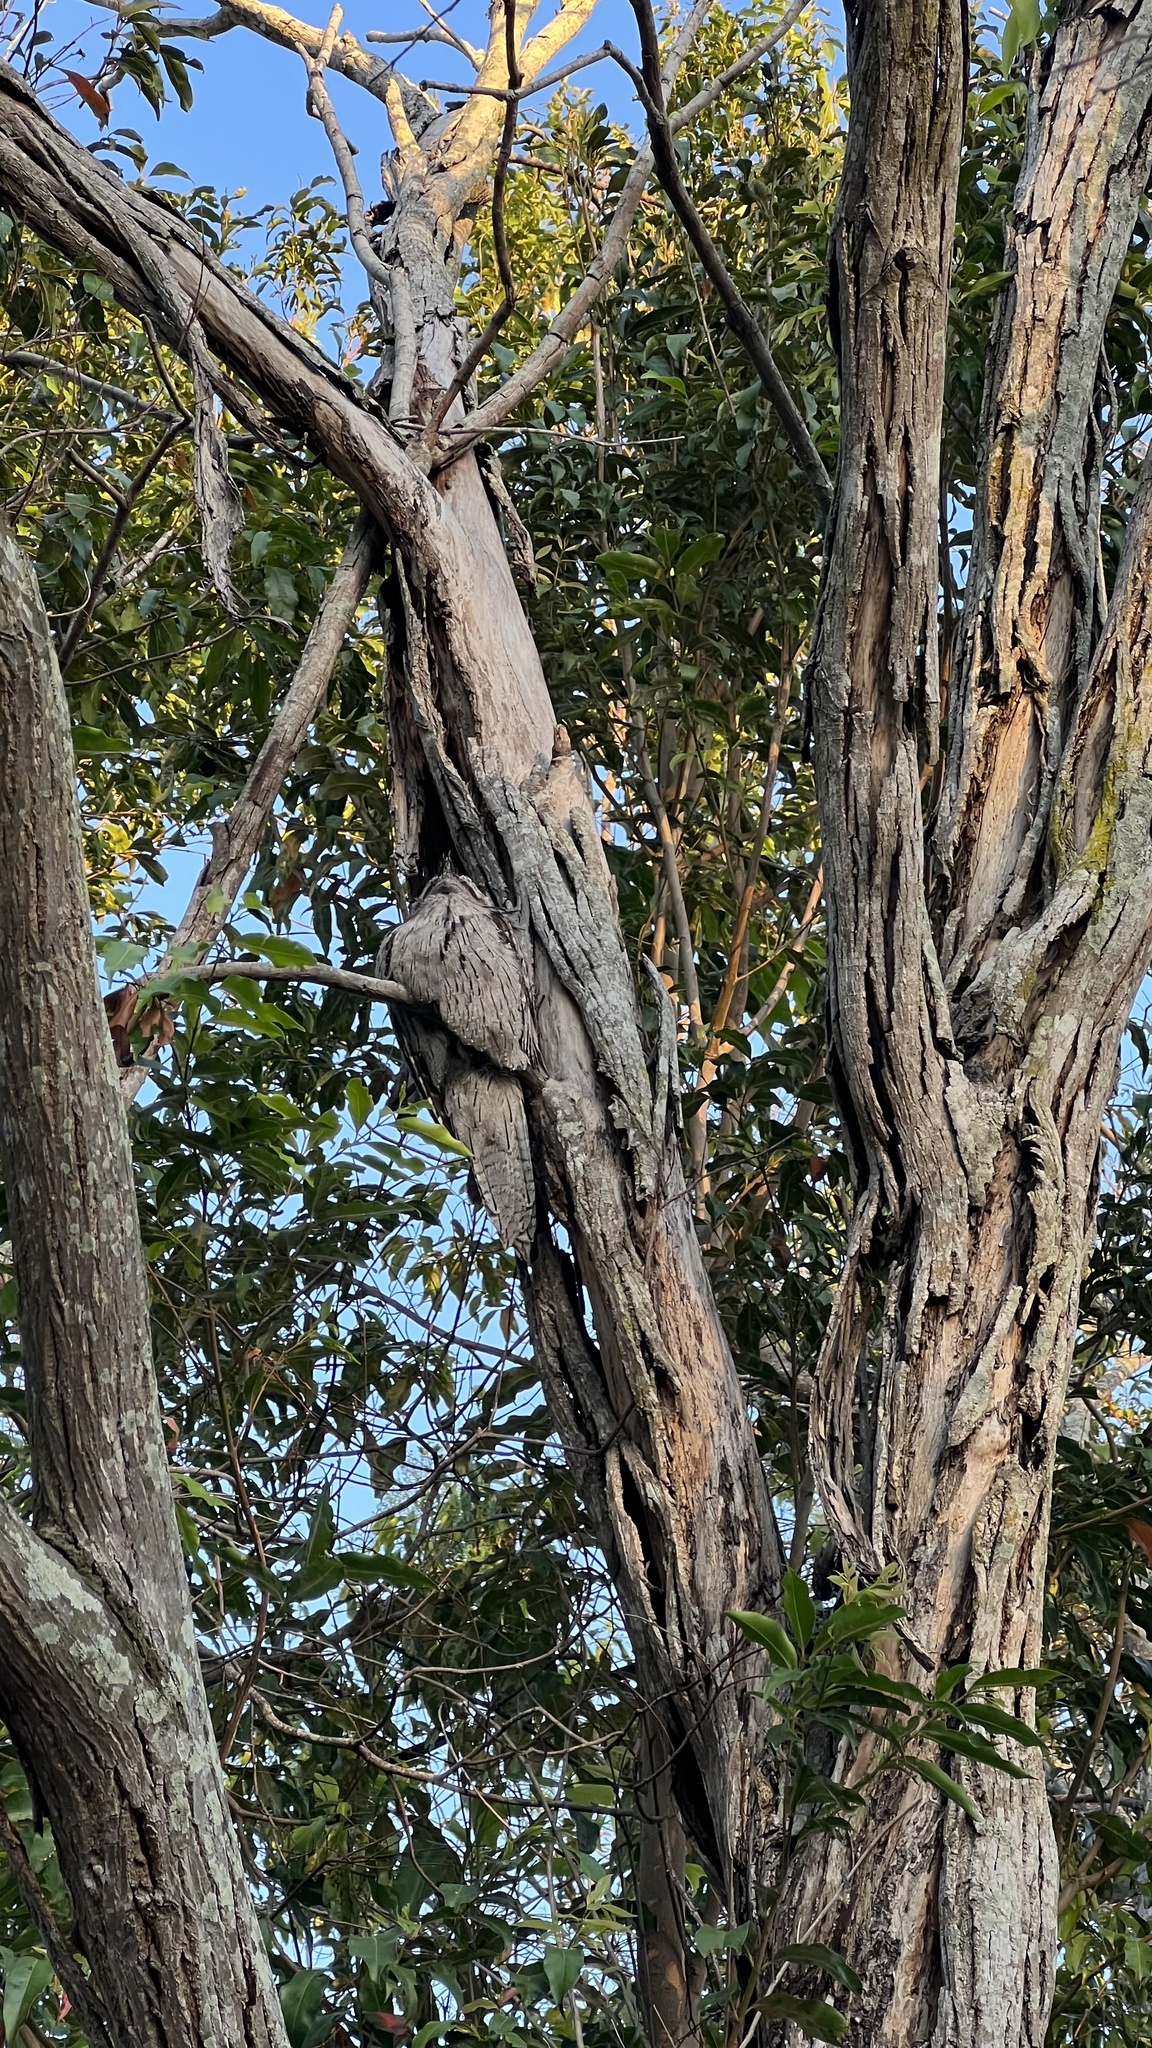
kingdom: Animalia
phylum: Chordata
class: Aves
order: Caprimulgiformes
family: Podargidae
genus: Podargus
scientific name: Podargus strigoides
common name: Tawny frogmouth
